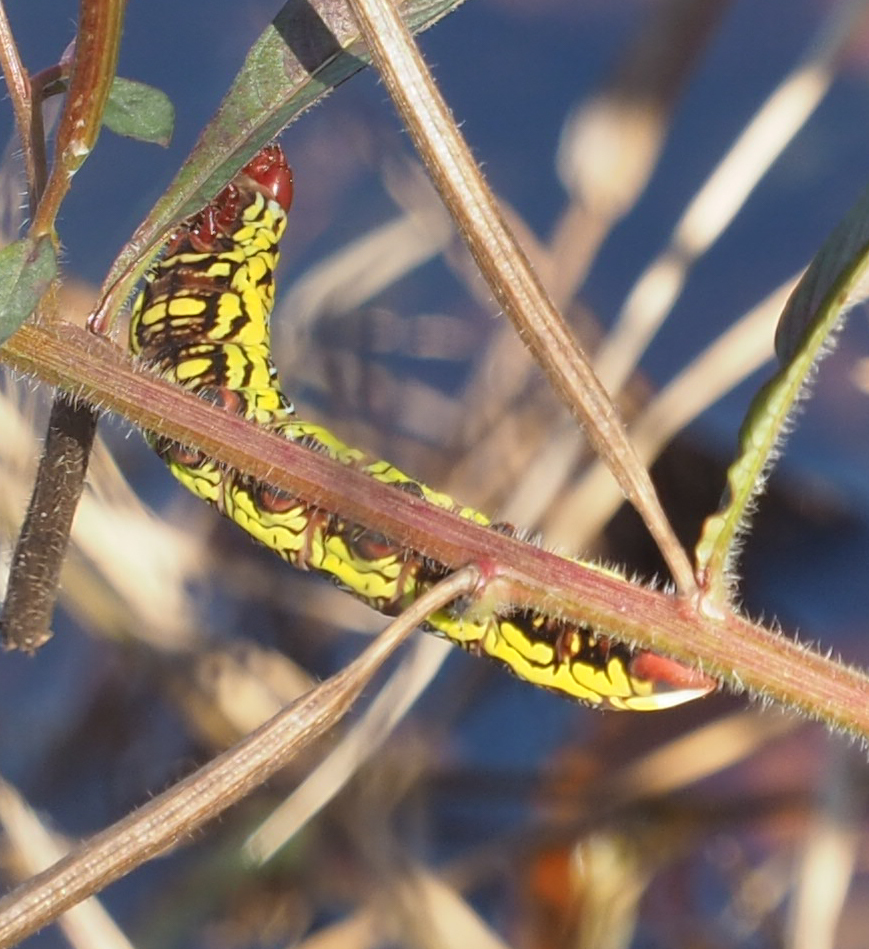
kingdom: Animalia
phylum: Arthropoda
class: Insecta
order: Lepidoptera
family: Sphingidae
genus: Eumorpha
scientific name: Eumorpha fasciatus
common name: Banded sphinx
